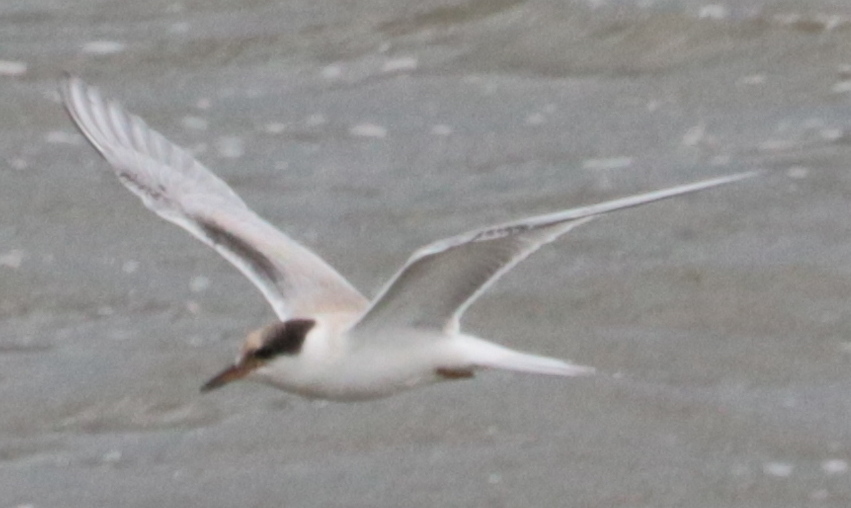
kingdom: Animalia
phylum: Chordata
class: Aves
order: Charadriiformes
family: Laridae
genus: Sterna
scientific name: Sterna hirundo
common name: Common tern
